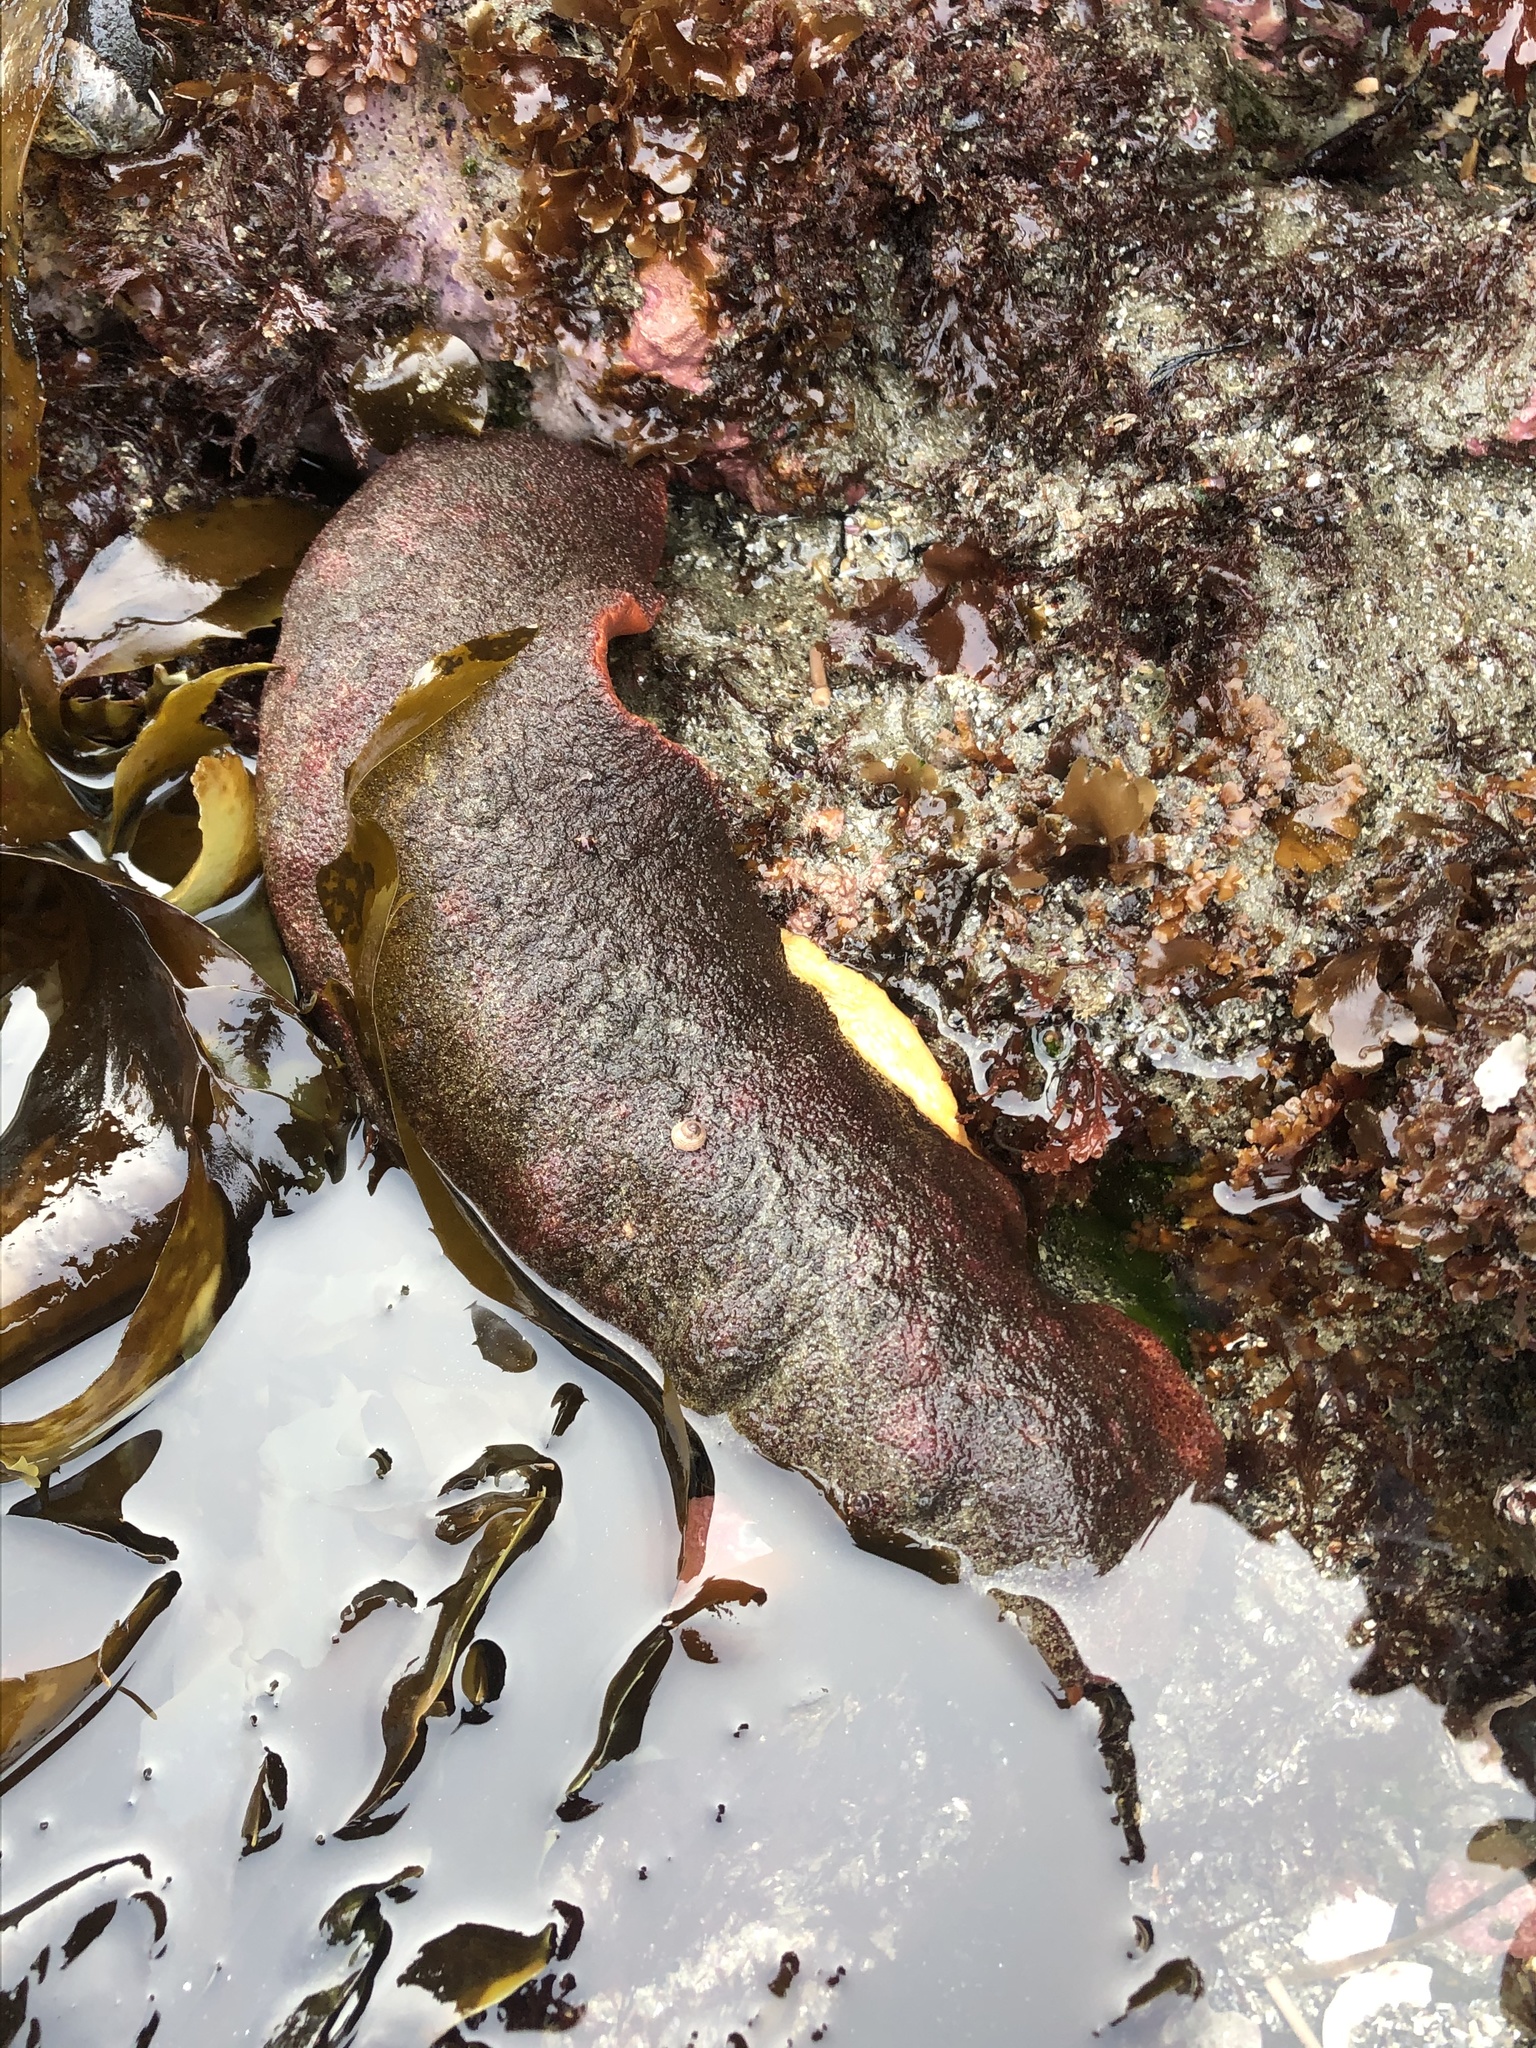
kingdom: Animalia
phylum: Mollusca
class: Polyplacophora
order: Chitonida
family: Acanthochitonidae
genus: Cryptochiton
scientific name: Cryptochiton stelleri
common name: Giant pacific chiton
